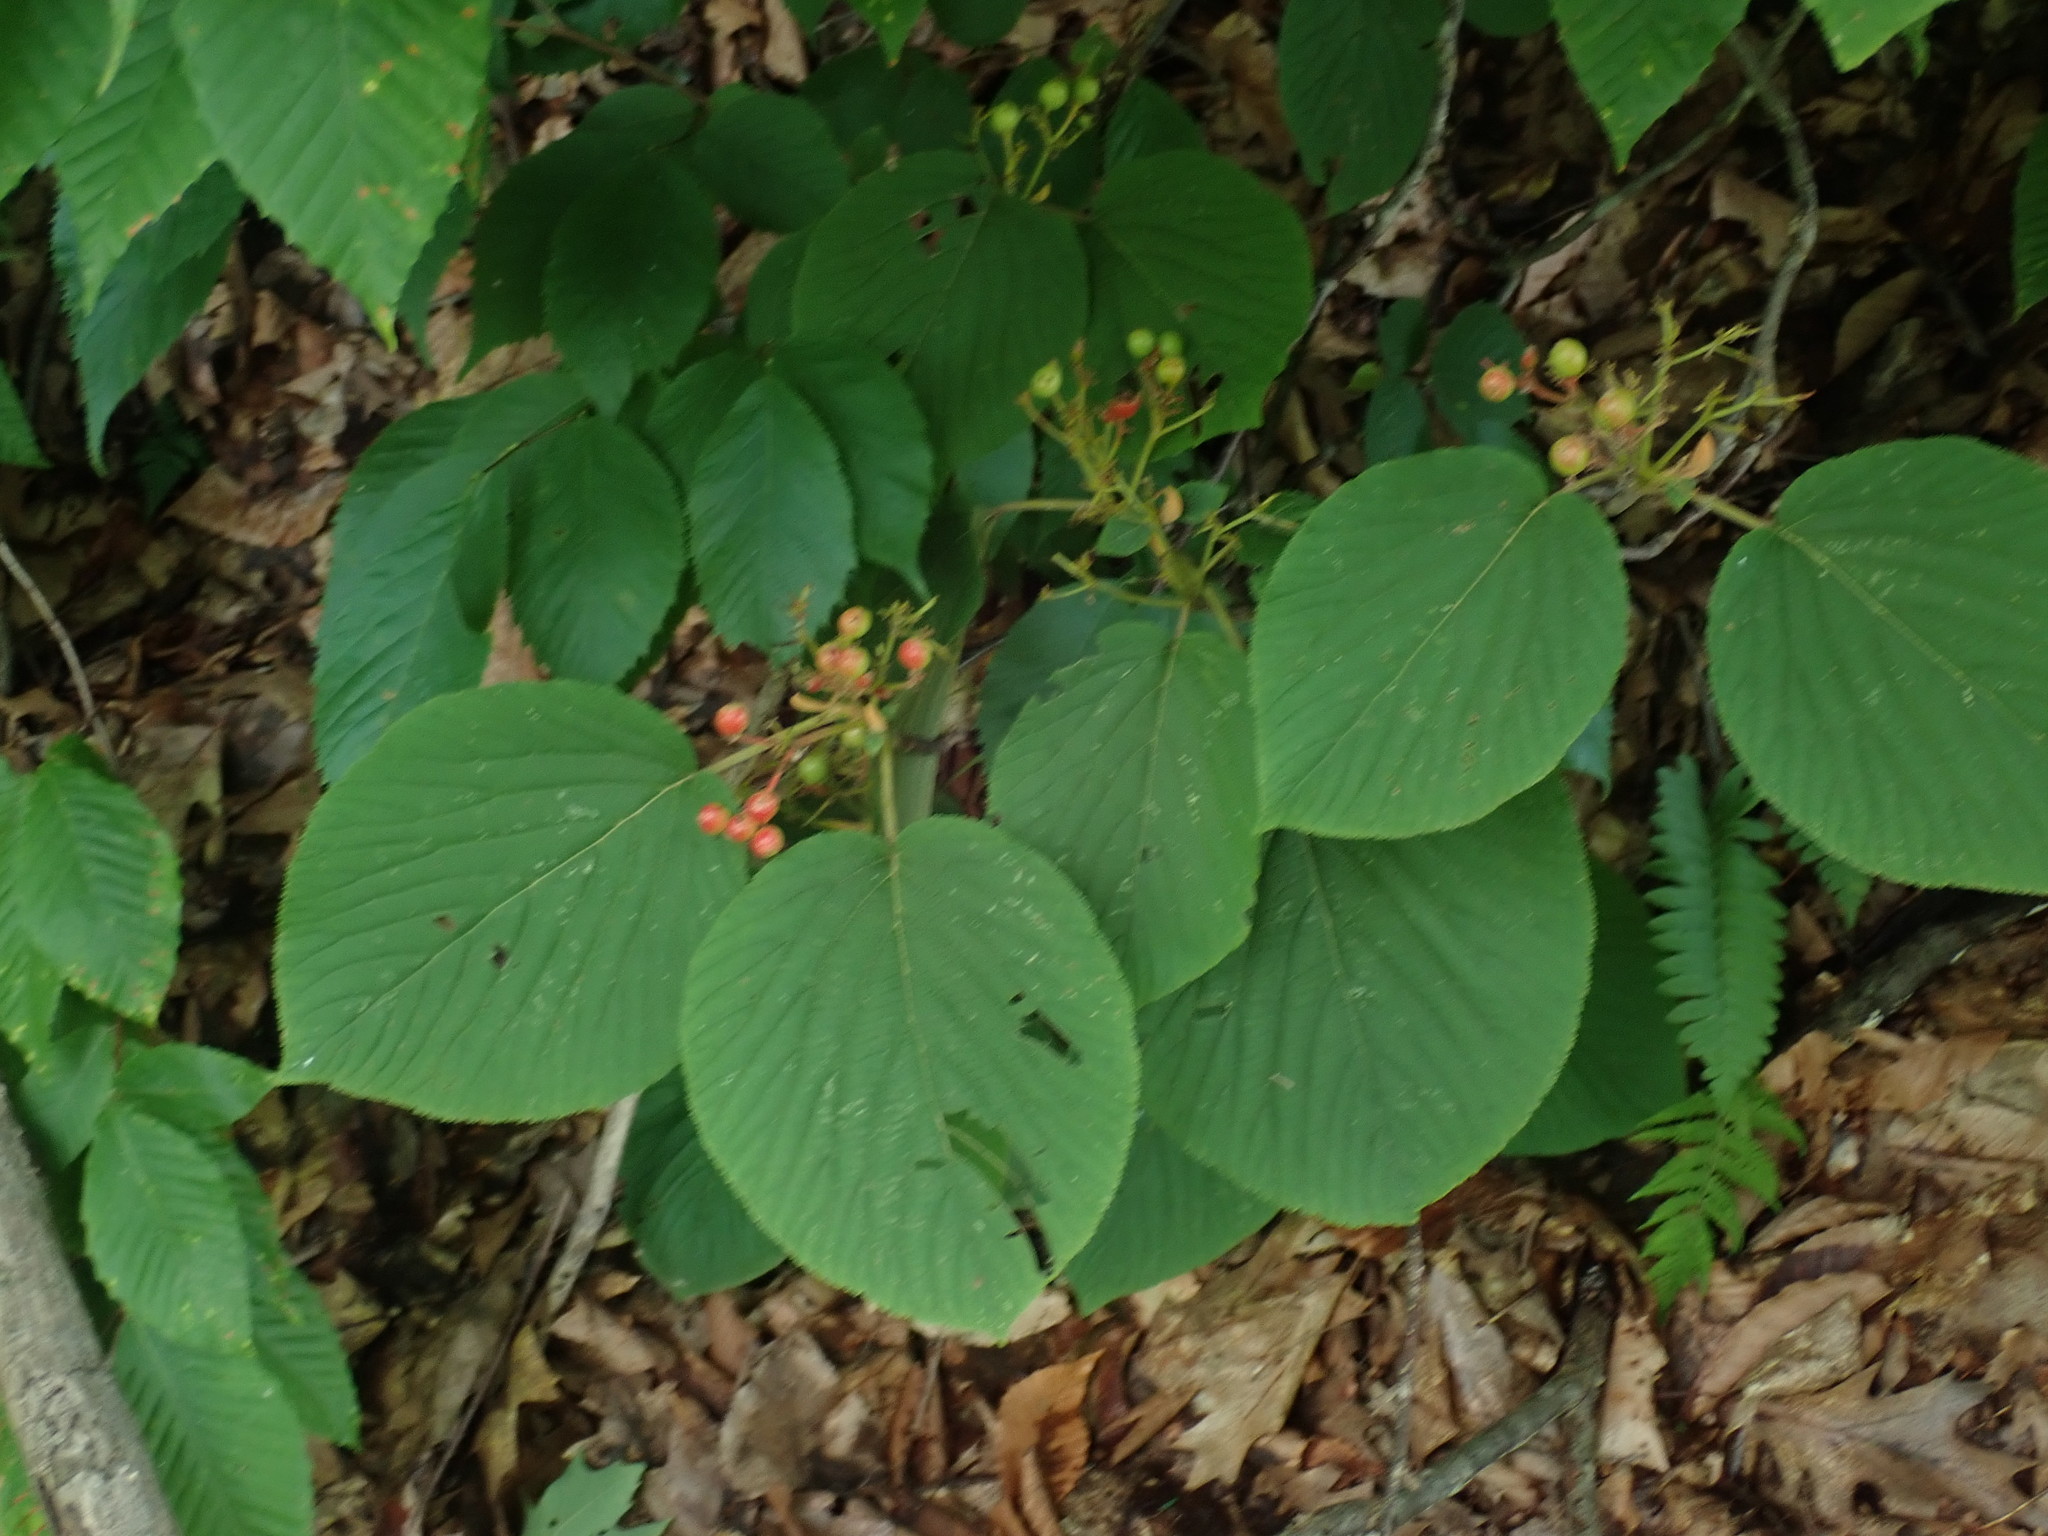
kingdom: Plantae
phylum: Tracheophyta
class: Magnoliopsida
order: Dipsacales
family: Viburnaceae
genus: Viburnum
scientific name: Viburnum lantanoides
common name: Hobblebush
